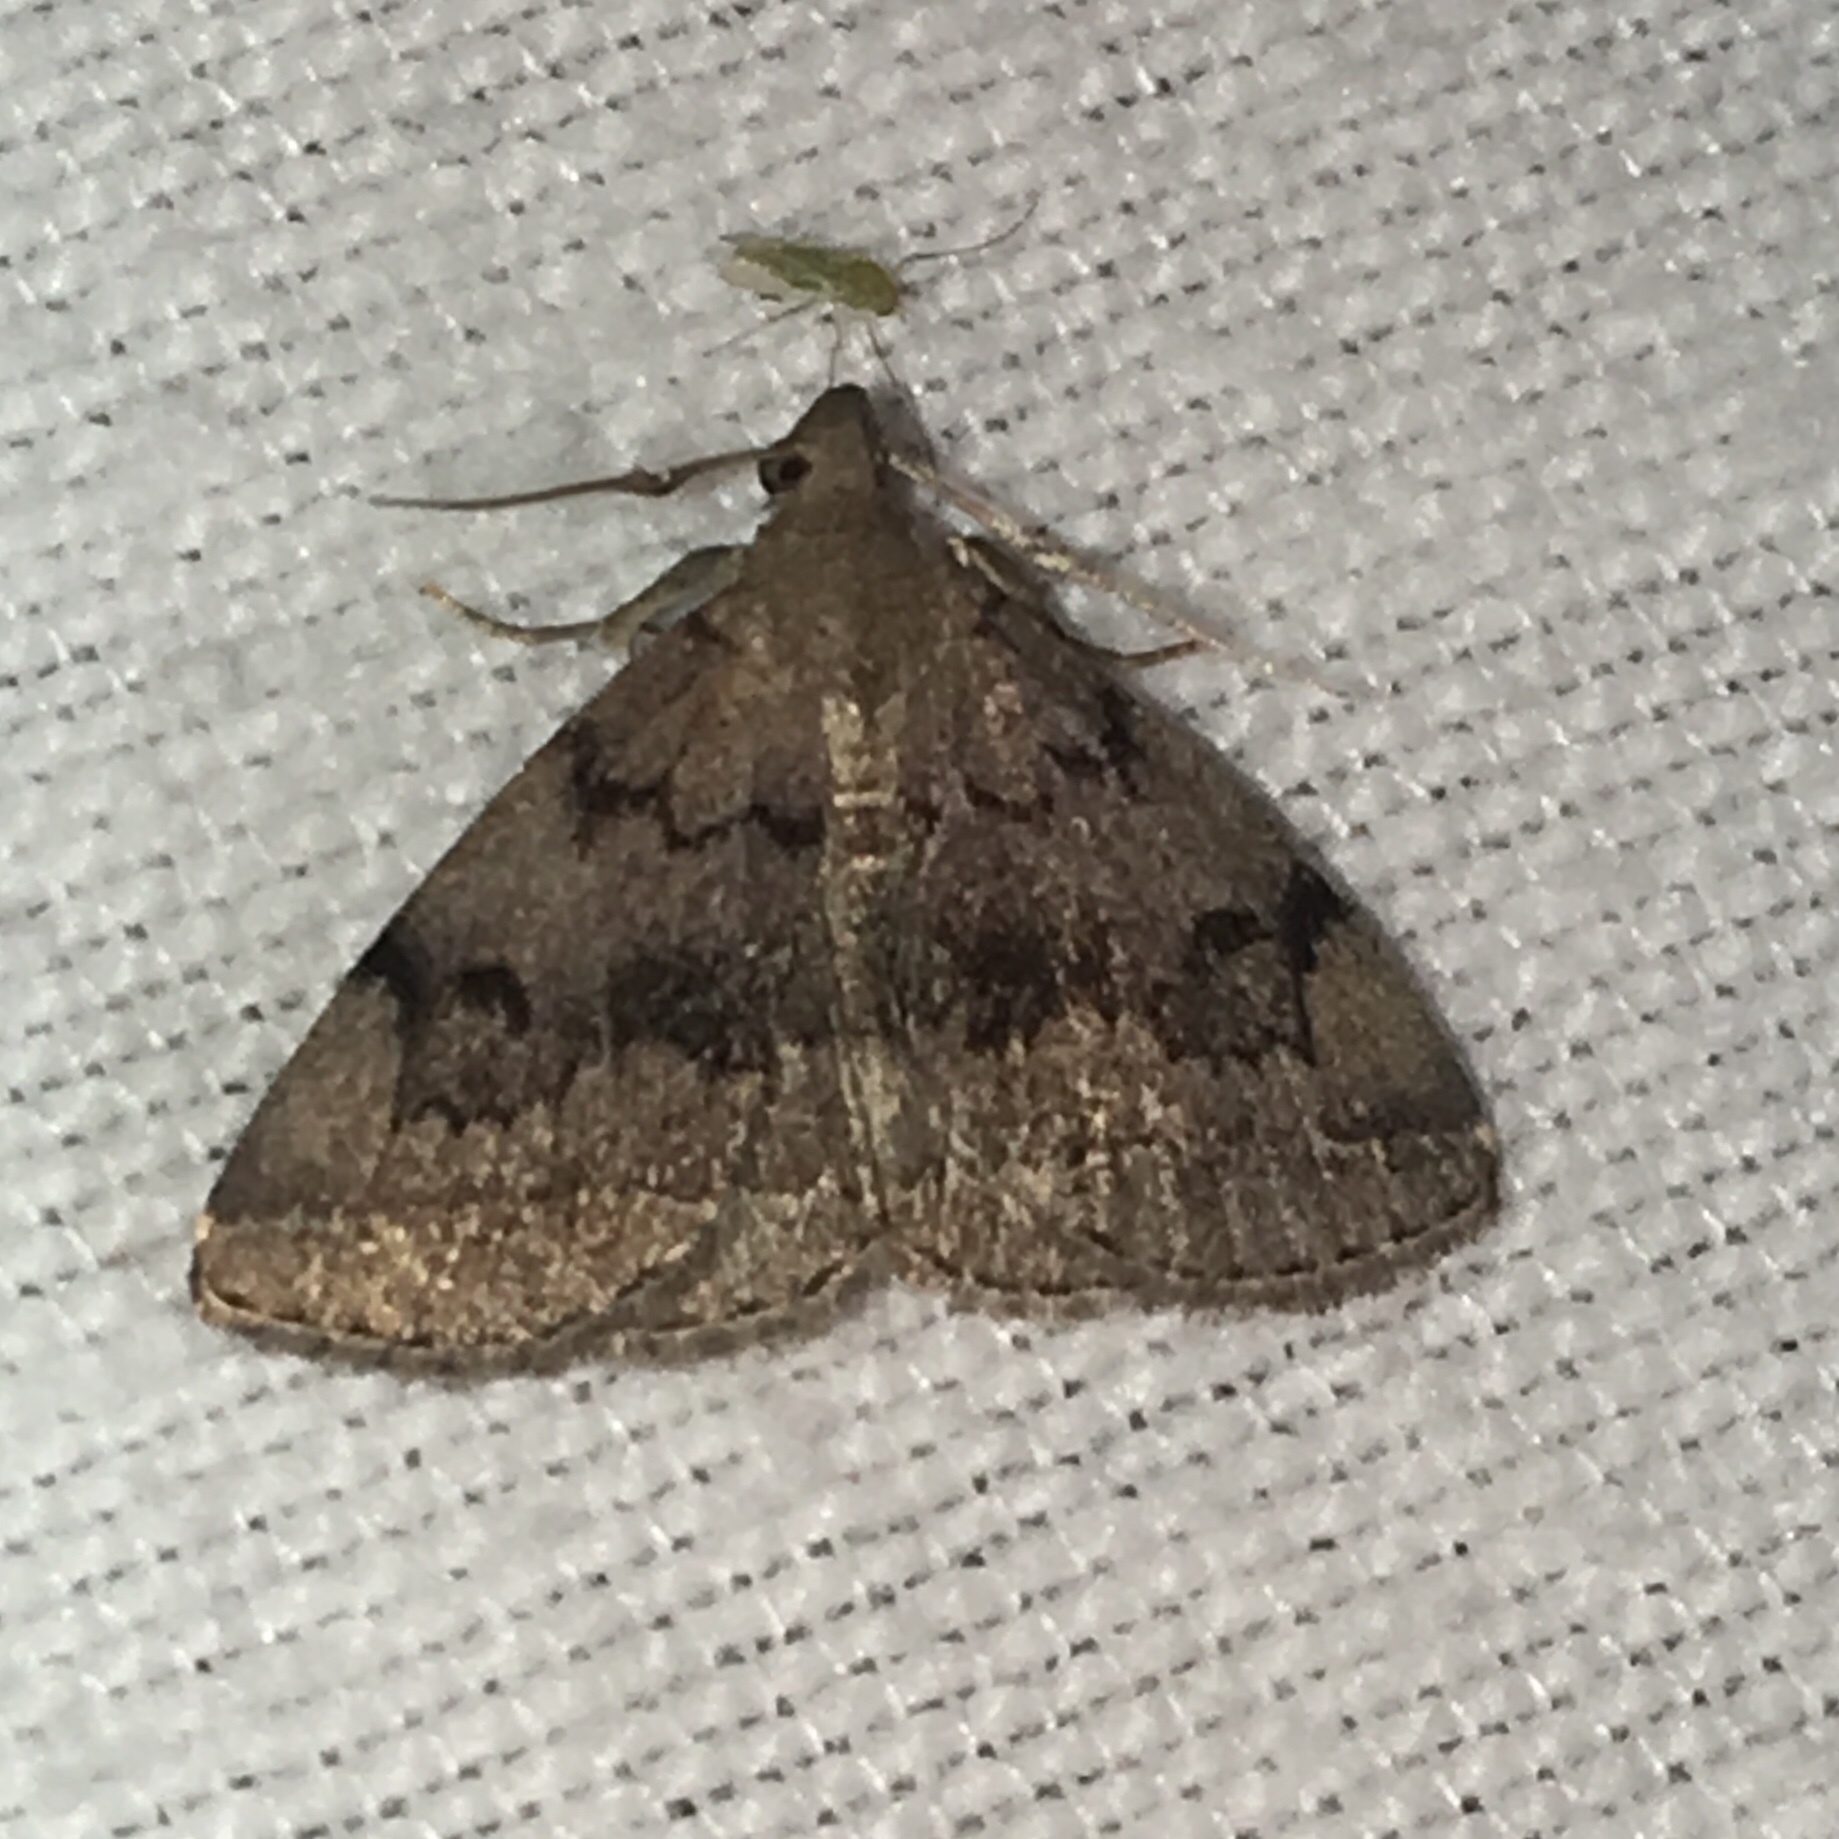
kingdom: Animalia
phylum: Arthropoda
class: Insecta
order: Lepidoptera
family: Erebidae
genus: Zanclognatha
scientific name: Zanclognatha dentata
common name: Toothed fan-foot
